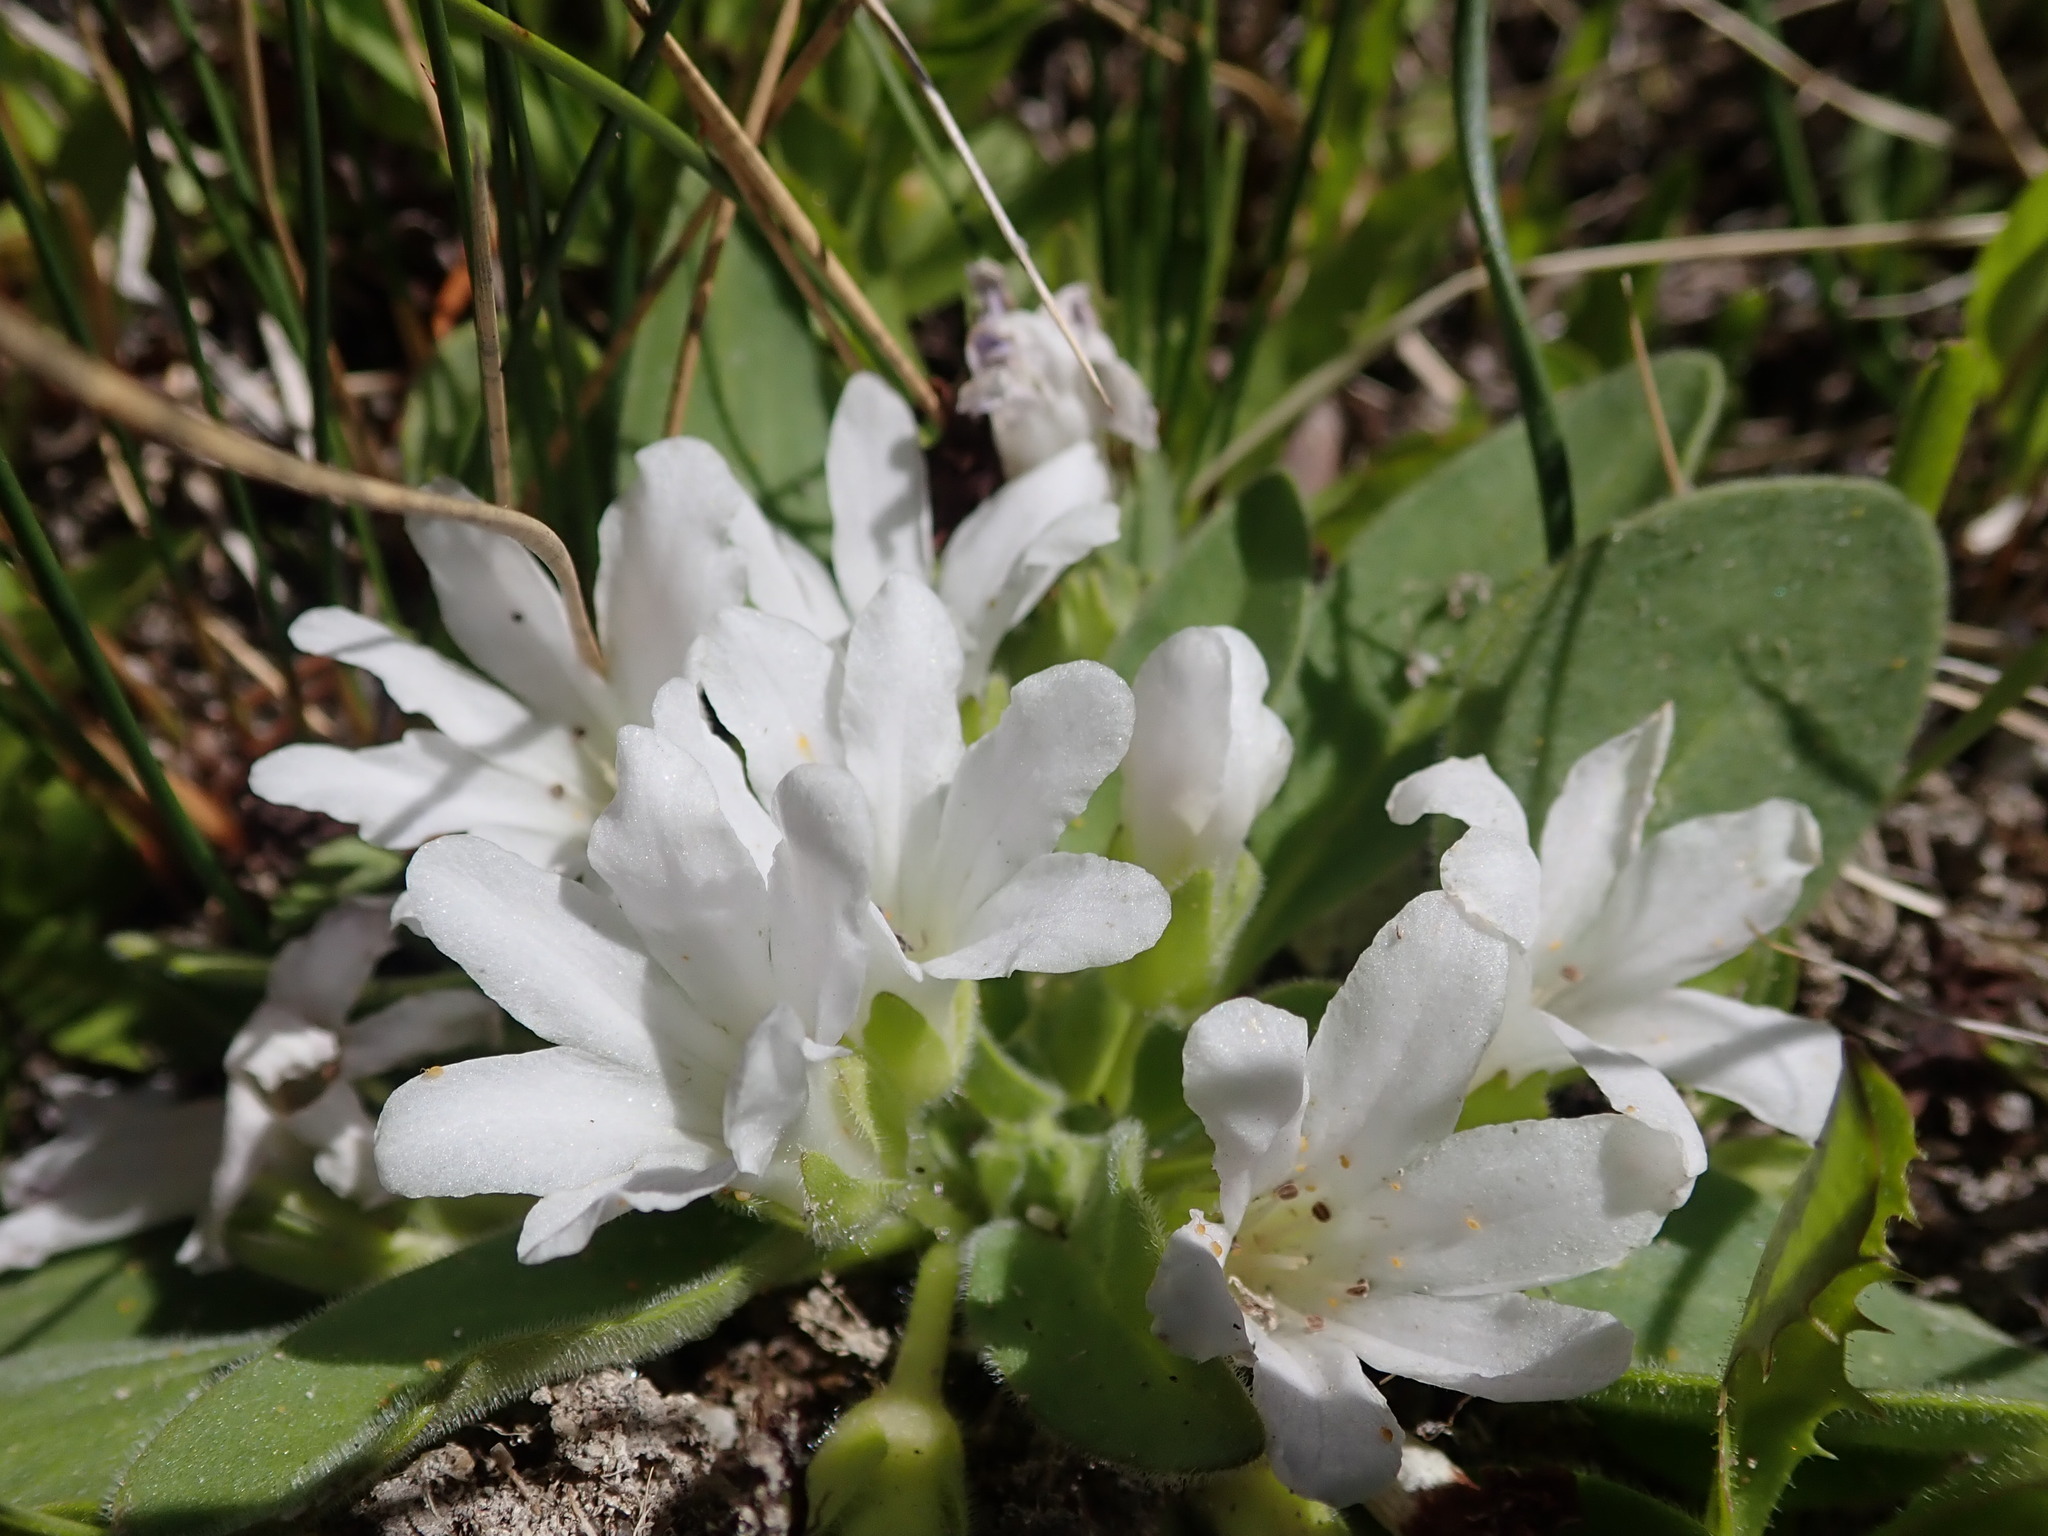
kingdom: Plantae
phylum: Tracheophyta
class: Magnoliopsida
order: Boraginales
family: Hydrophyllaceae
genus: Hesperochiron
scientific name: Hesperochiron californicus
